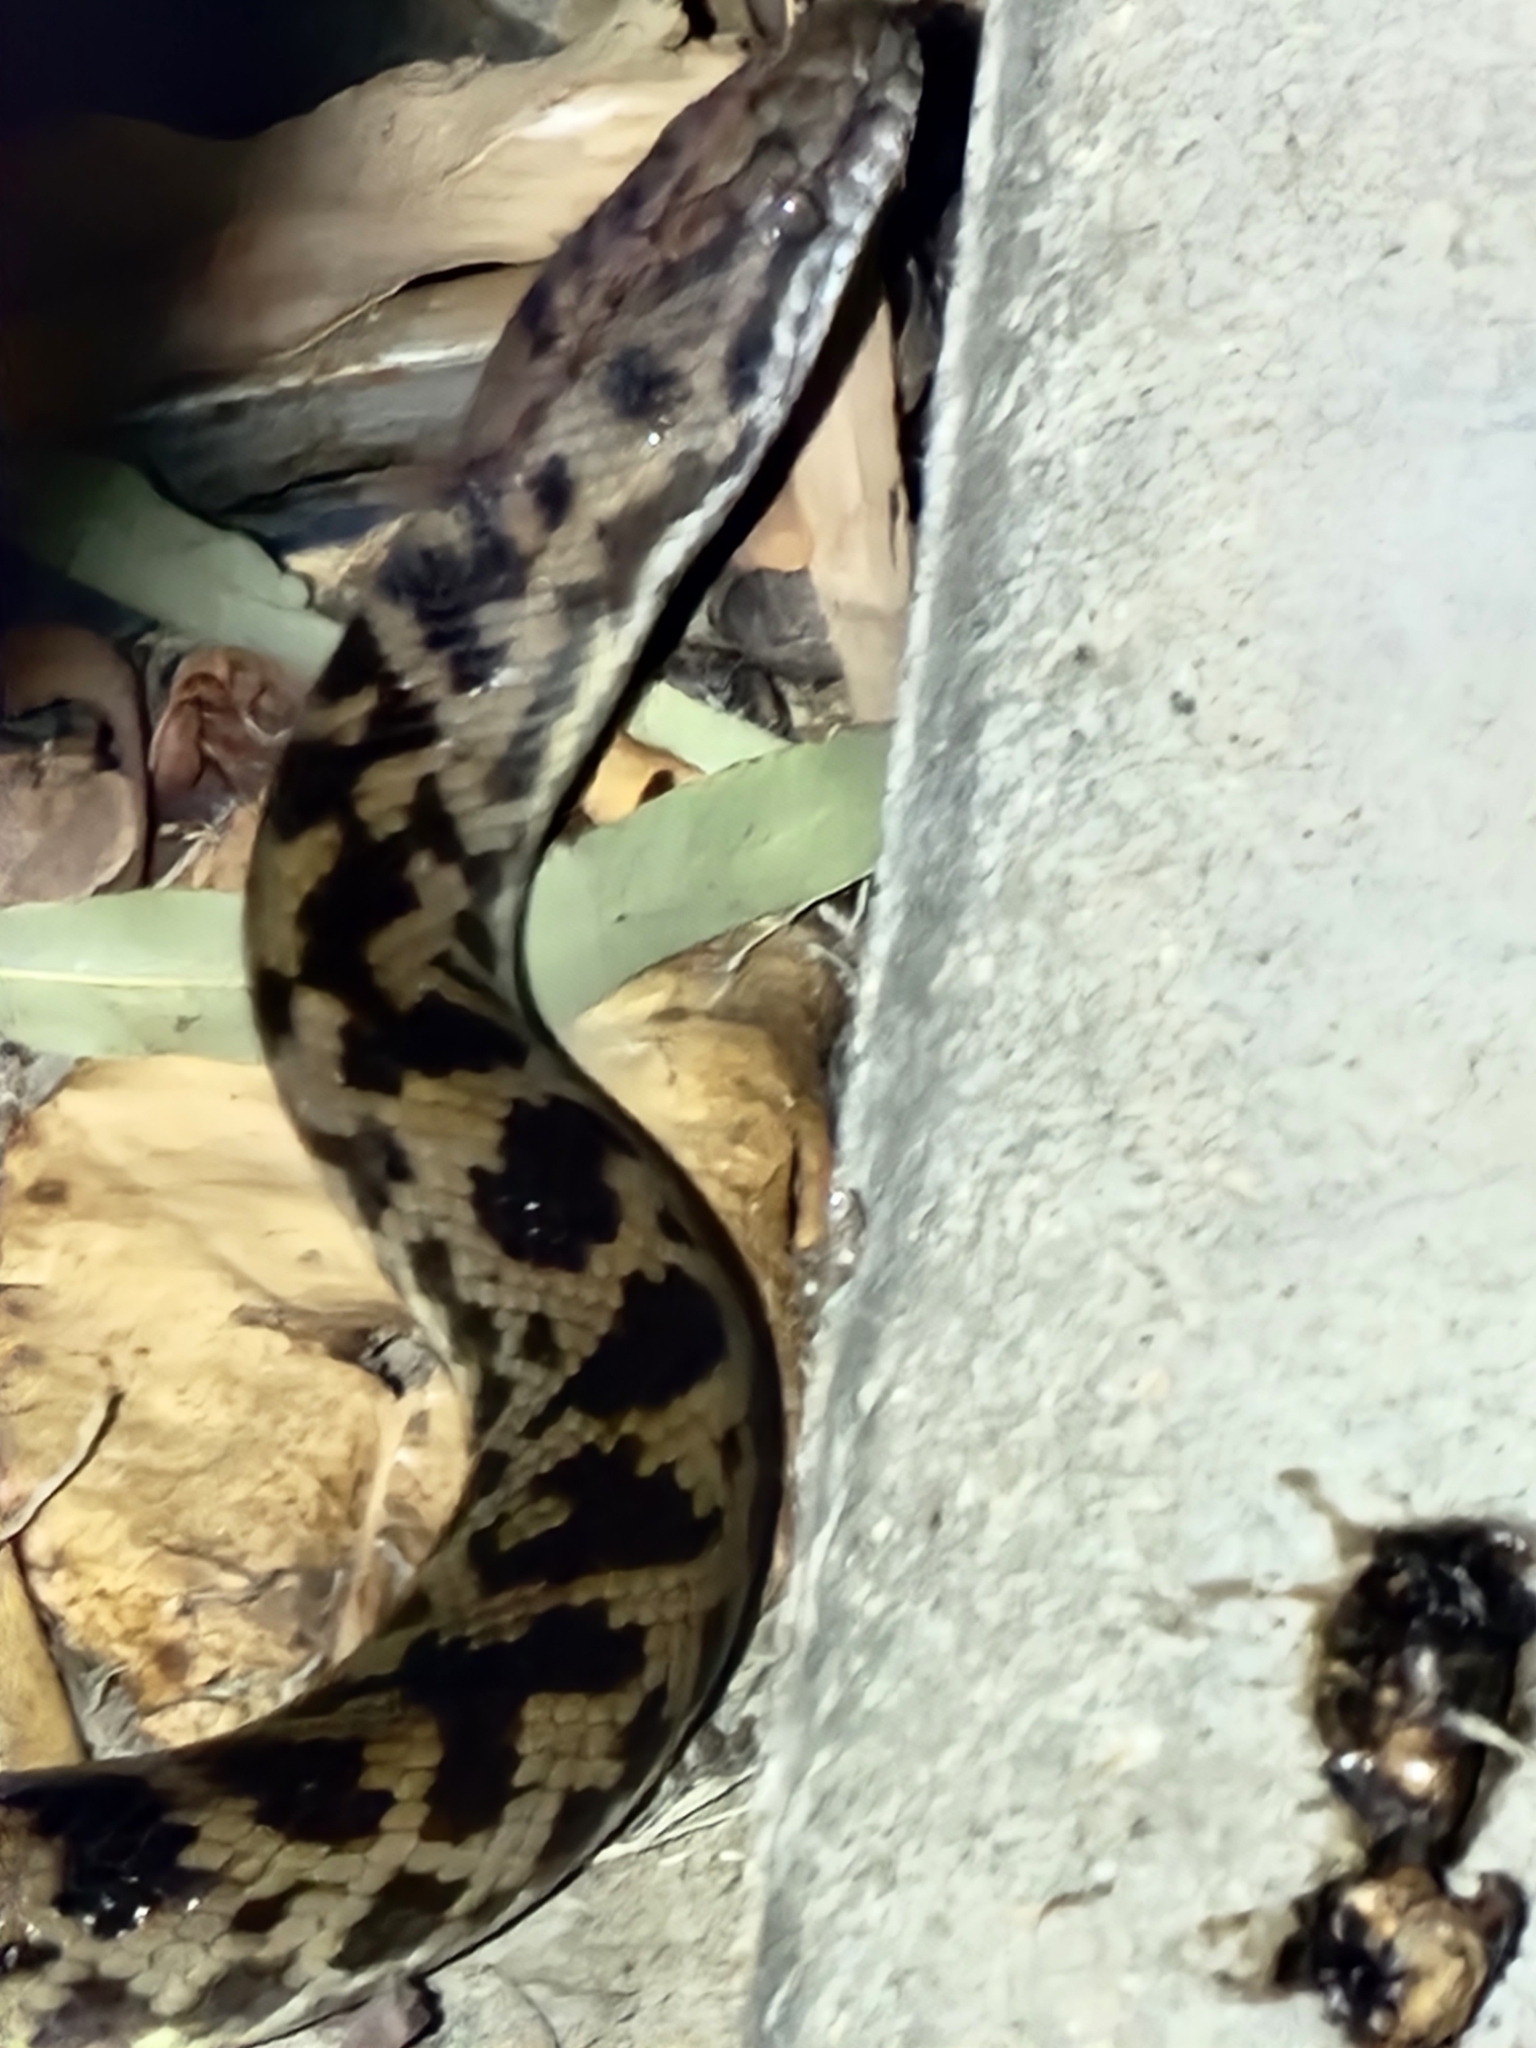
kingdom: Animalia
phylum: Chordata
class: Squamata
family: Pythonidae
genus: Antaresia
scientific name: Antaresia maculosa
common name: Eastern childrens python
